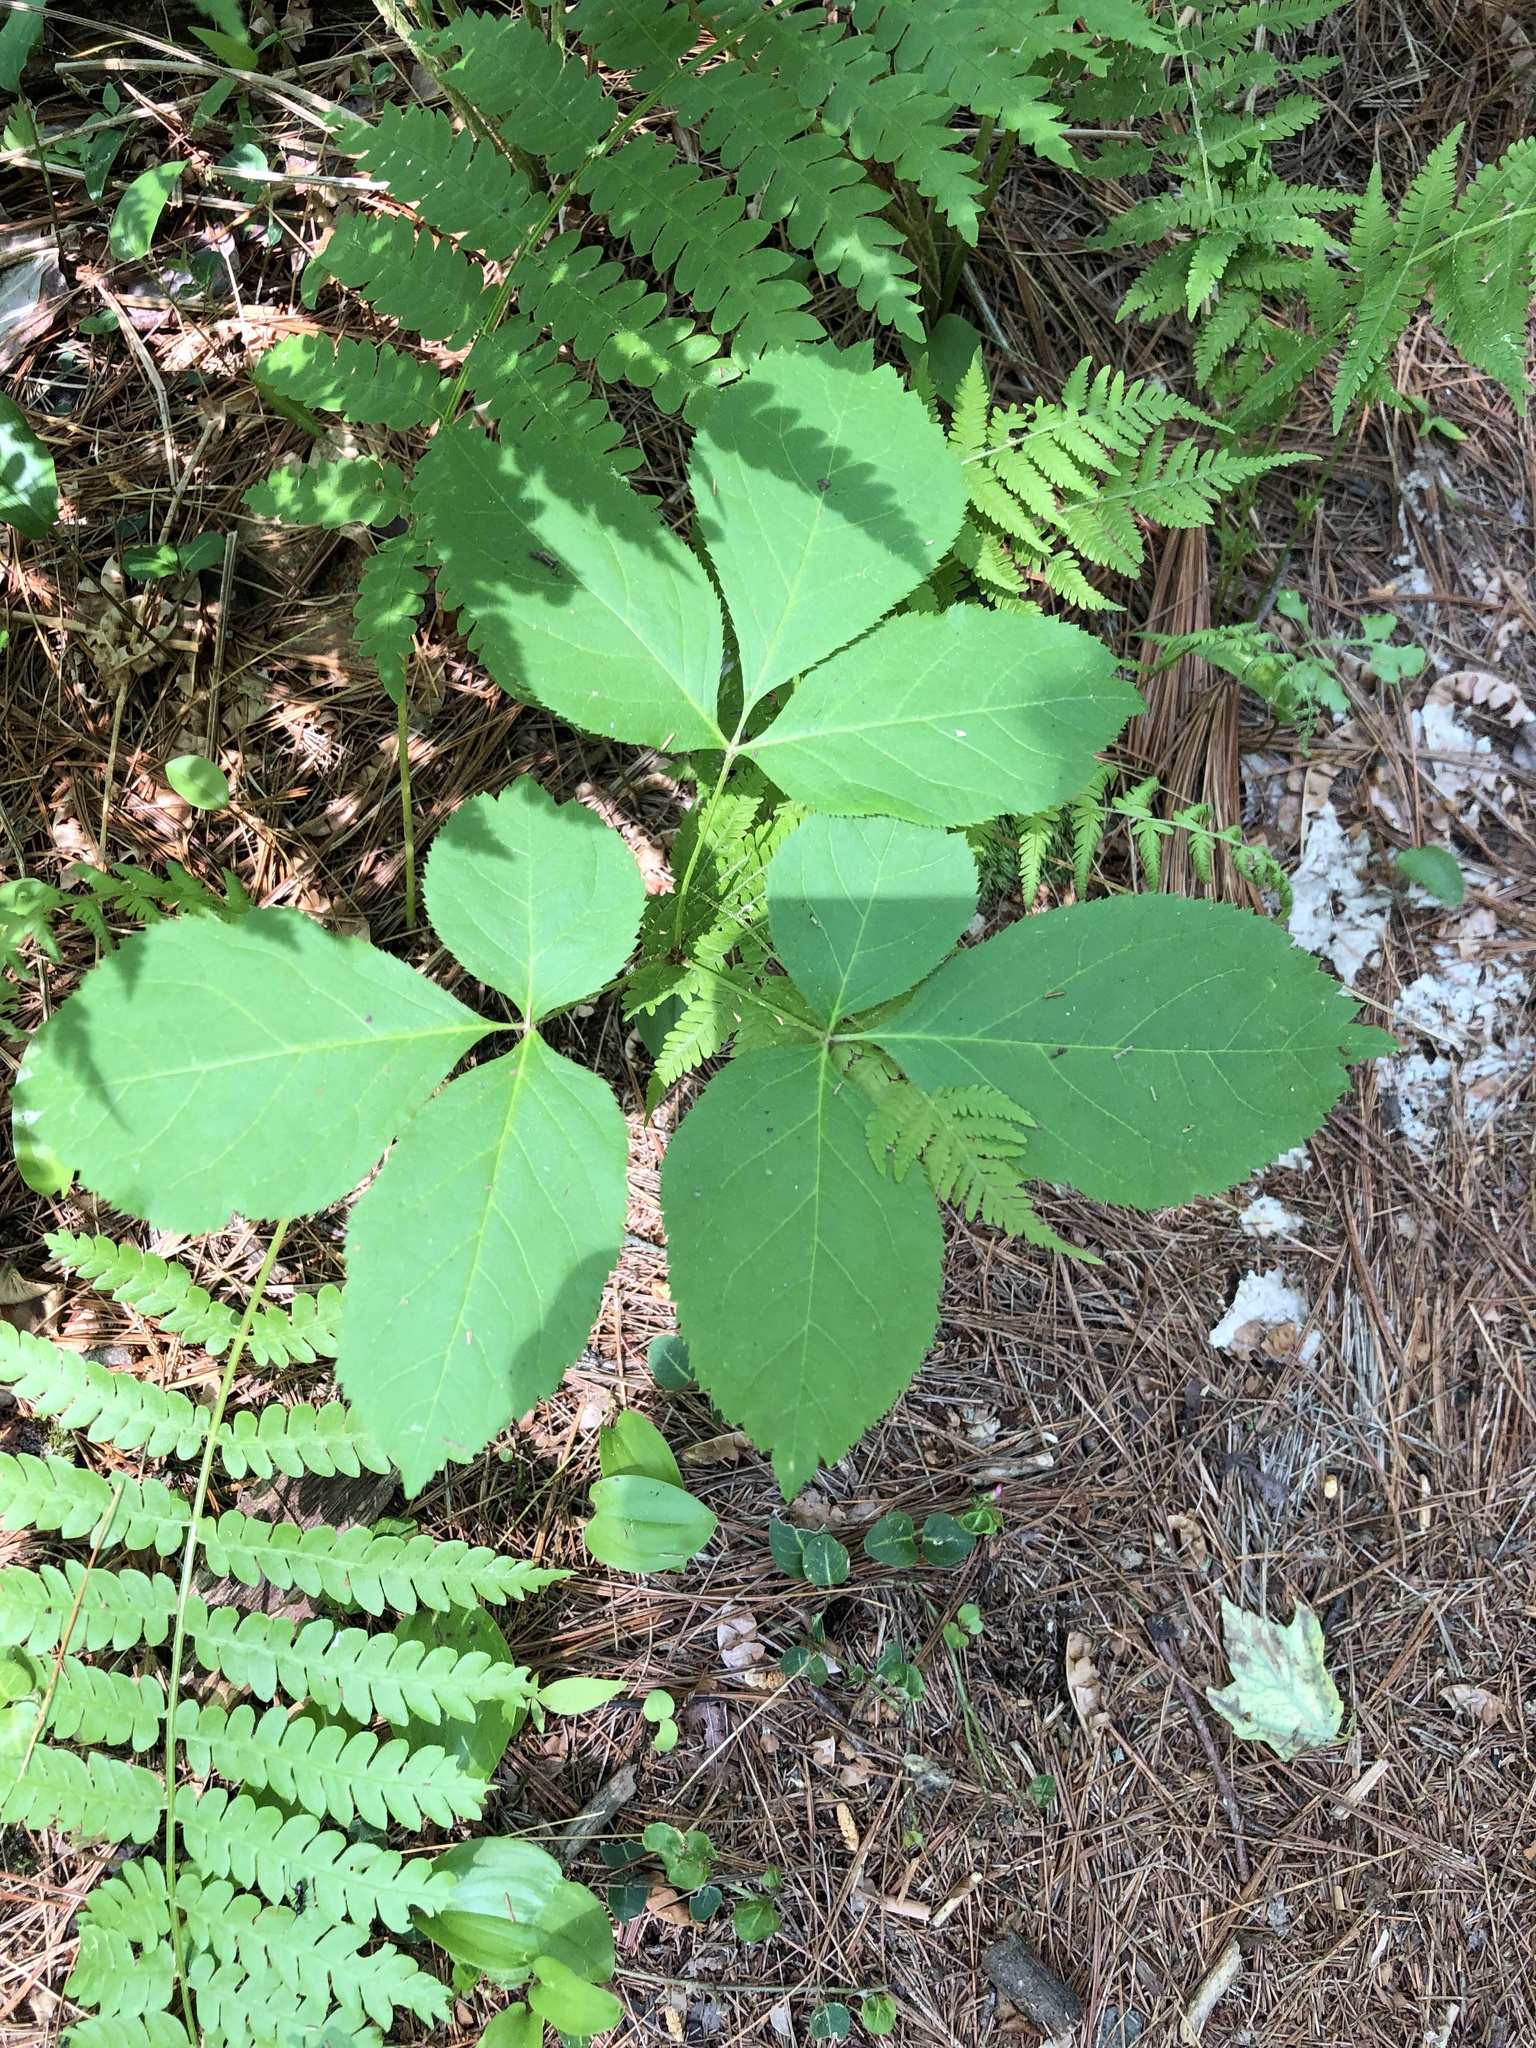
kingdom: Plantae
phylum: Tracheophyta
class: Magnoliopsida
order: Apiales
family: Araliaceae
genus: Aralia
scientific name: Aralia nudicaulis
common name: Wild sarsaparilla
